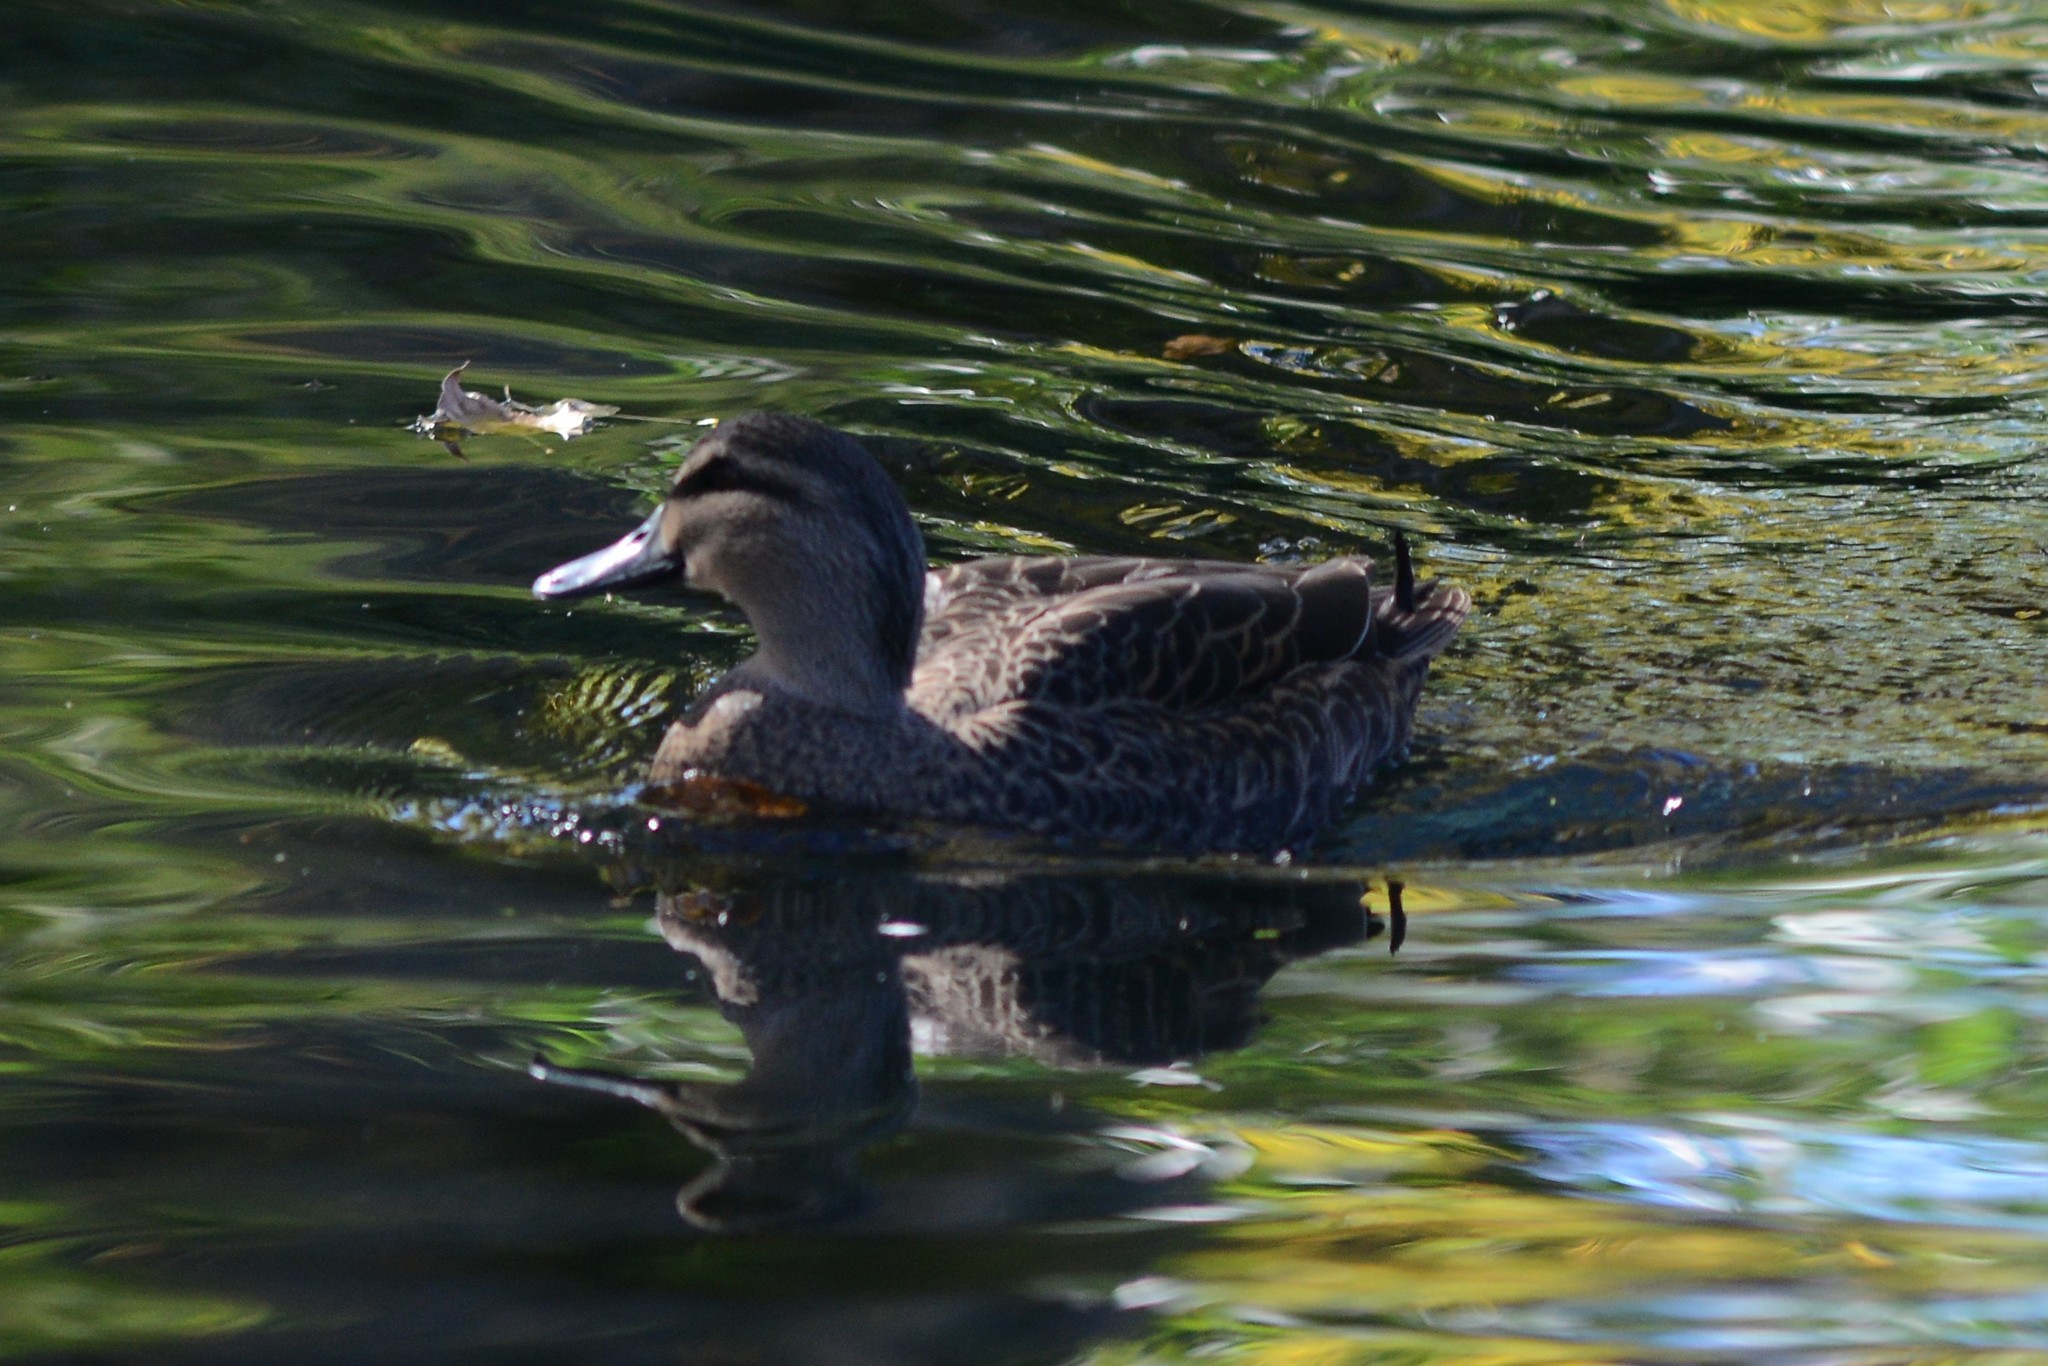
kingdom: Animalia
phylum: Chordata
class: Aves
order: Anseriformes
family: Anatidae
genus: Anas
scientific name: Anas
